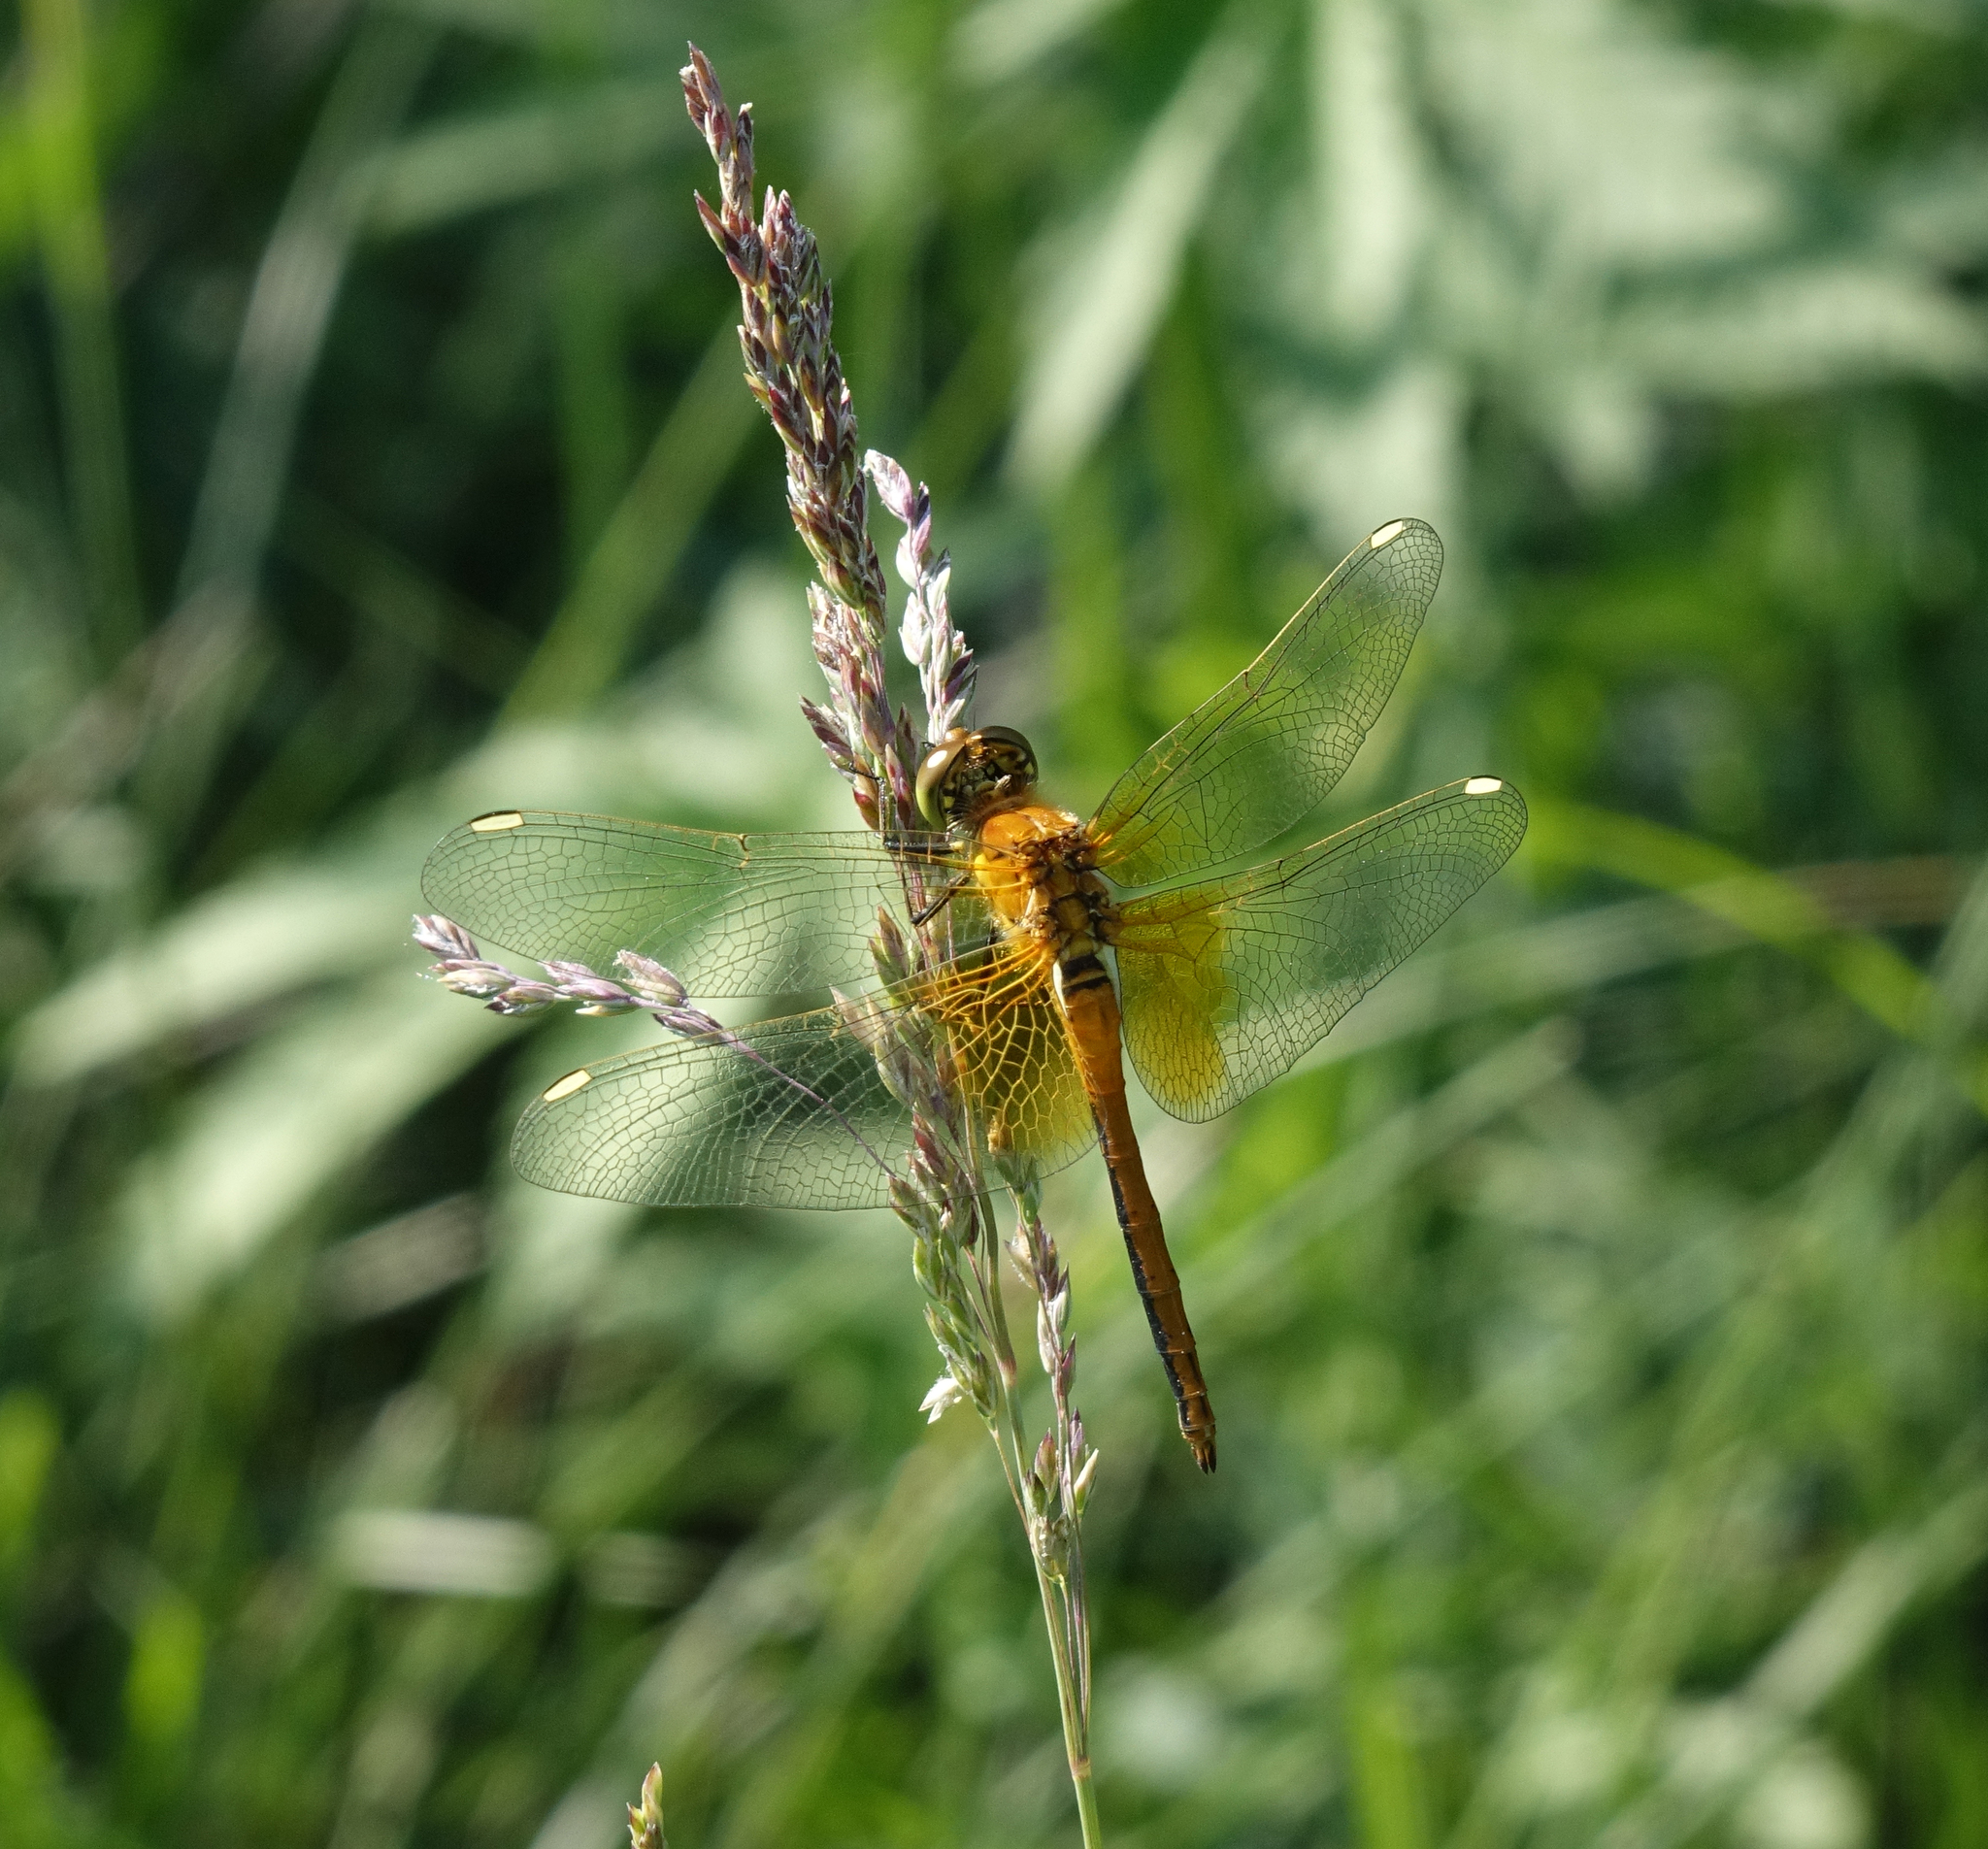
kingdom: Animalia
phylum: Arthropoda
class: Insecta
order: Odonata
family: Libellulidae
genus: Sympetrum
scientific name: Sympetrum flaveolum
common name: Yellow-winged darter
